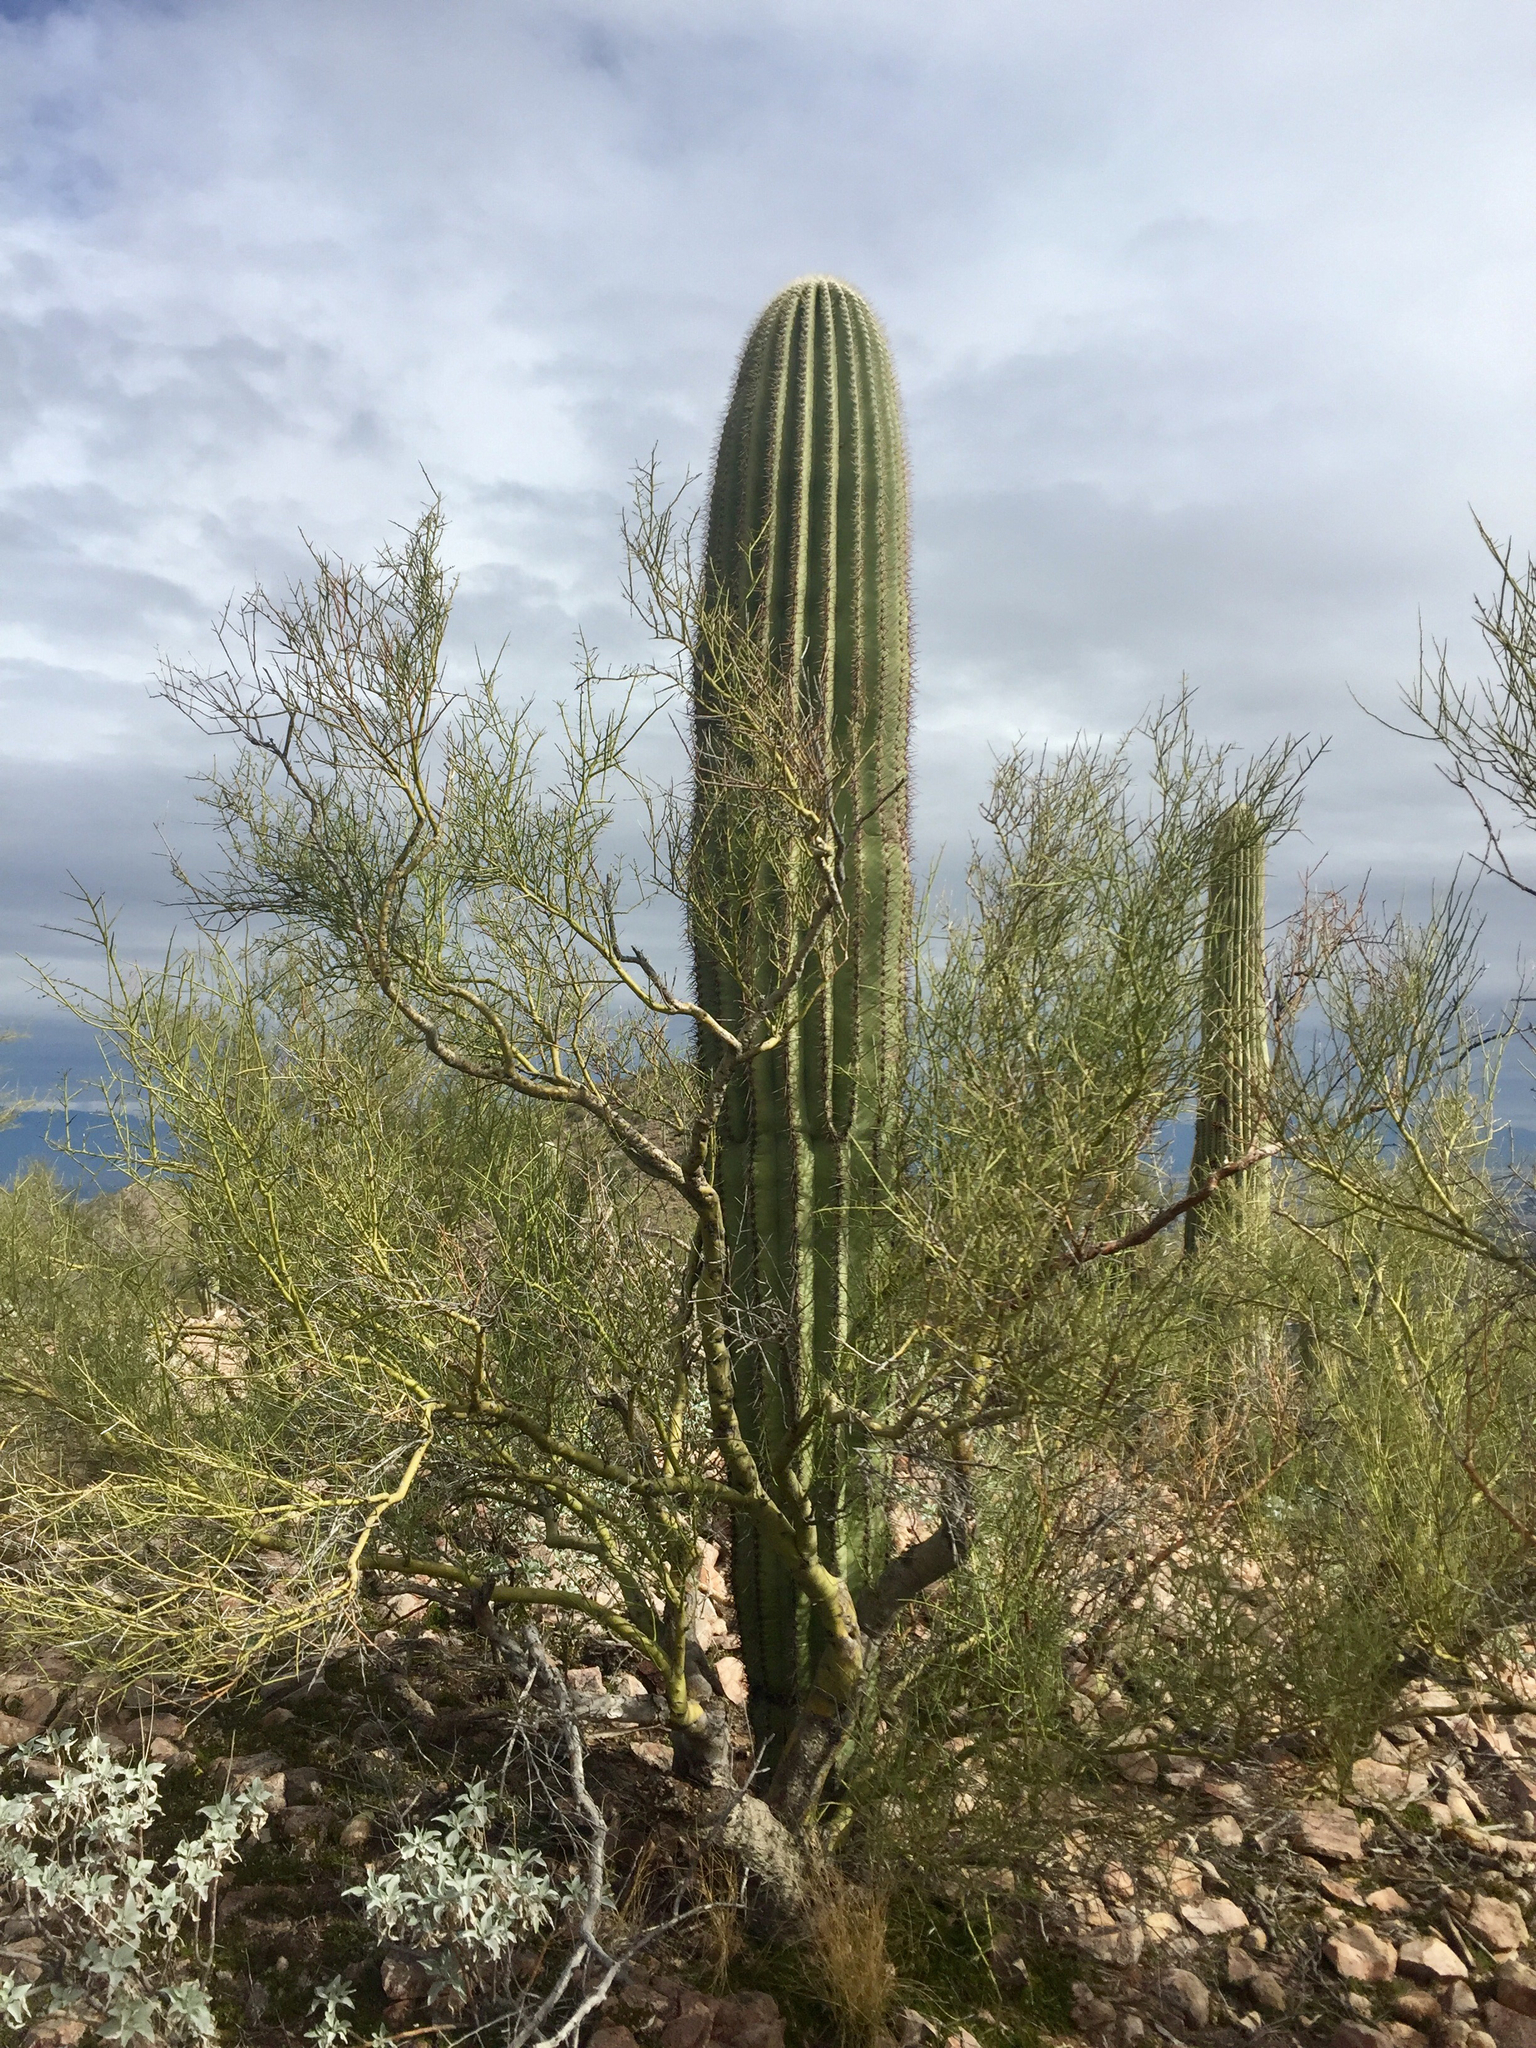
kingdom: Plantae
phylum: Tracheophyta
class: Magnoliopsida
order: Fabales
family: Fabaceae
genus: Parkinsonia
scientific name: Parkinsonia microphylla
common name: Yellow paloverde
